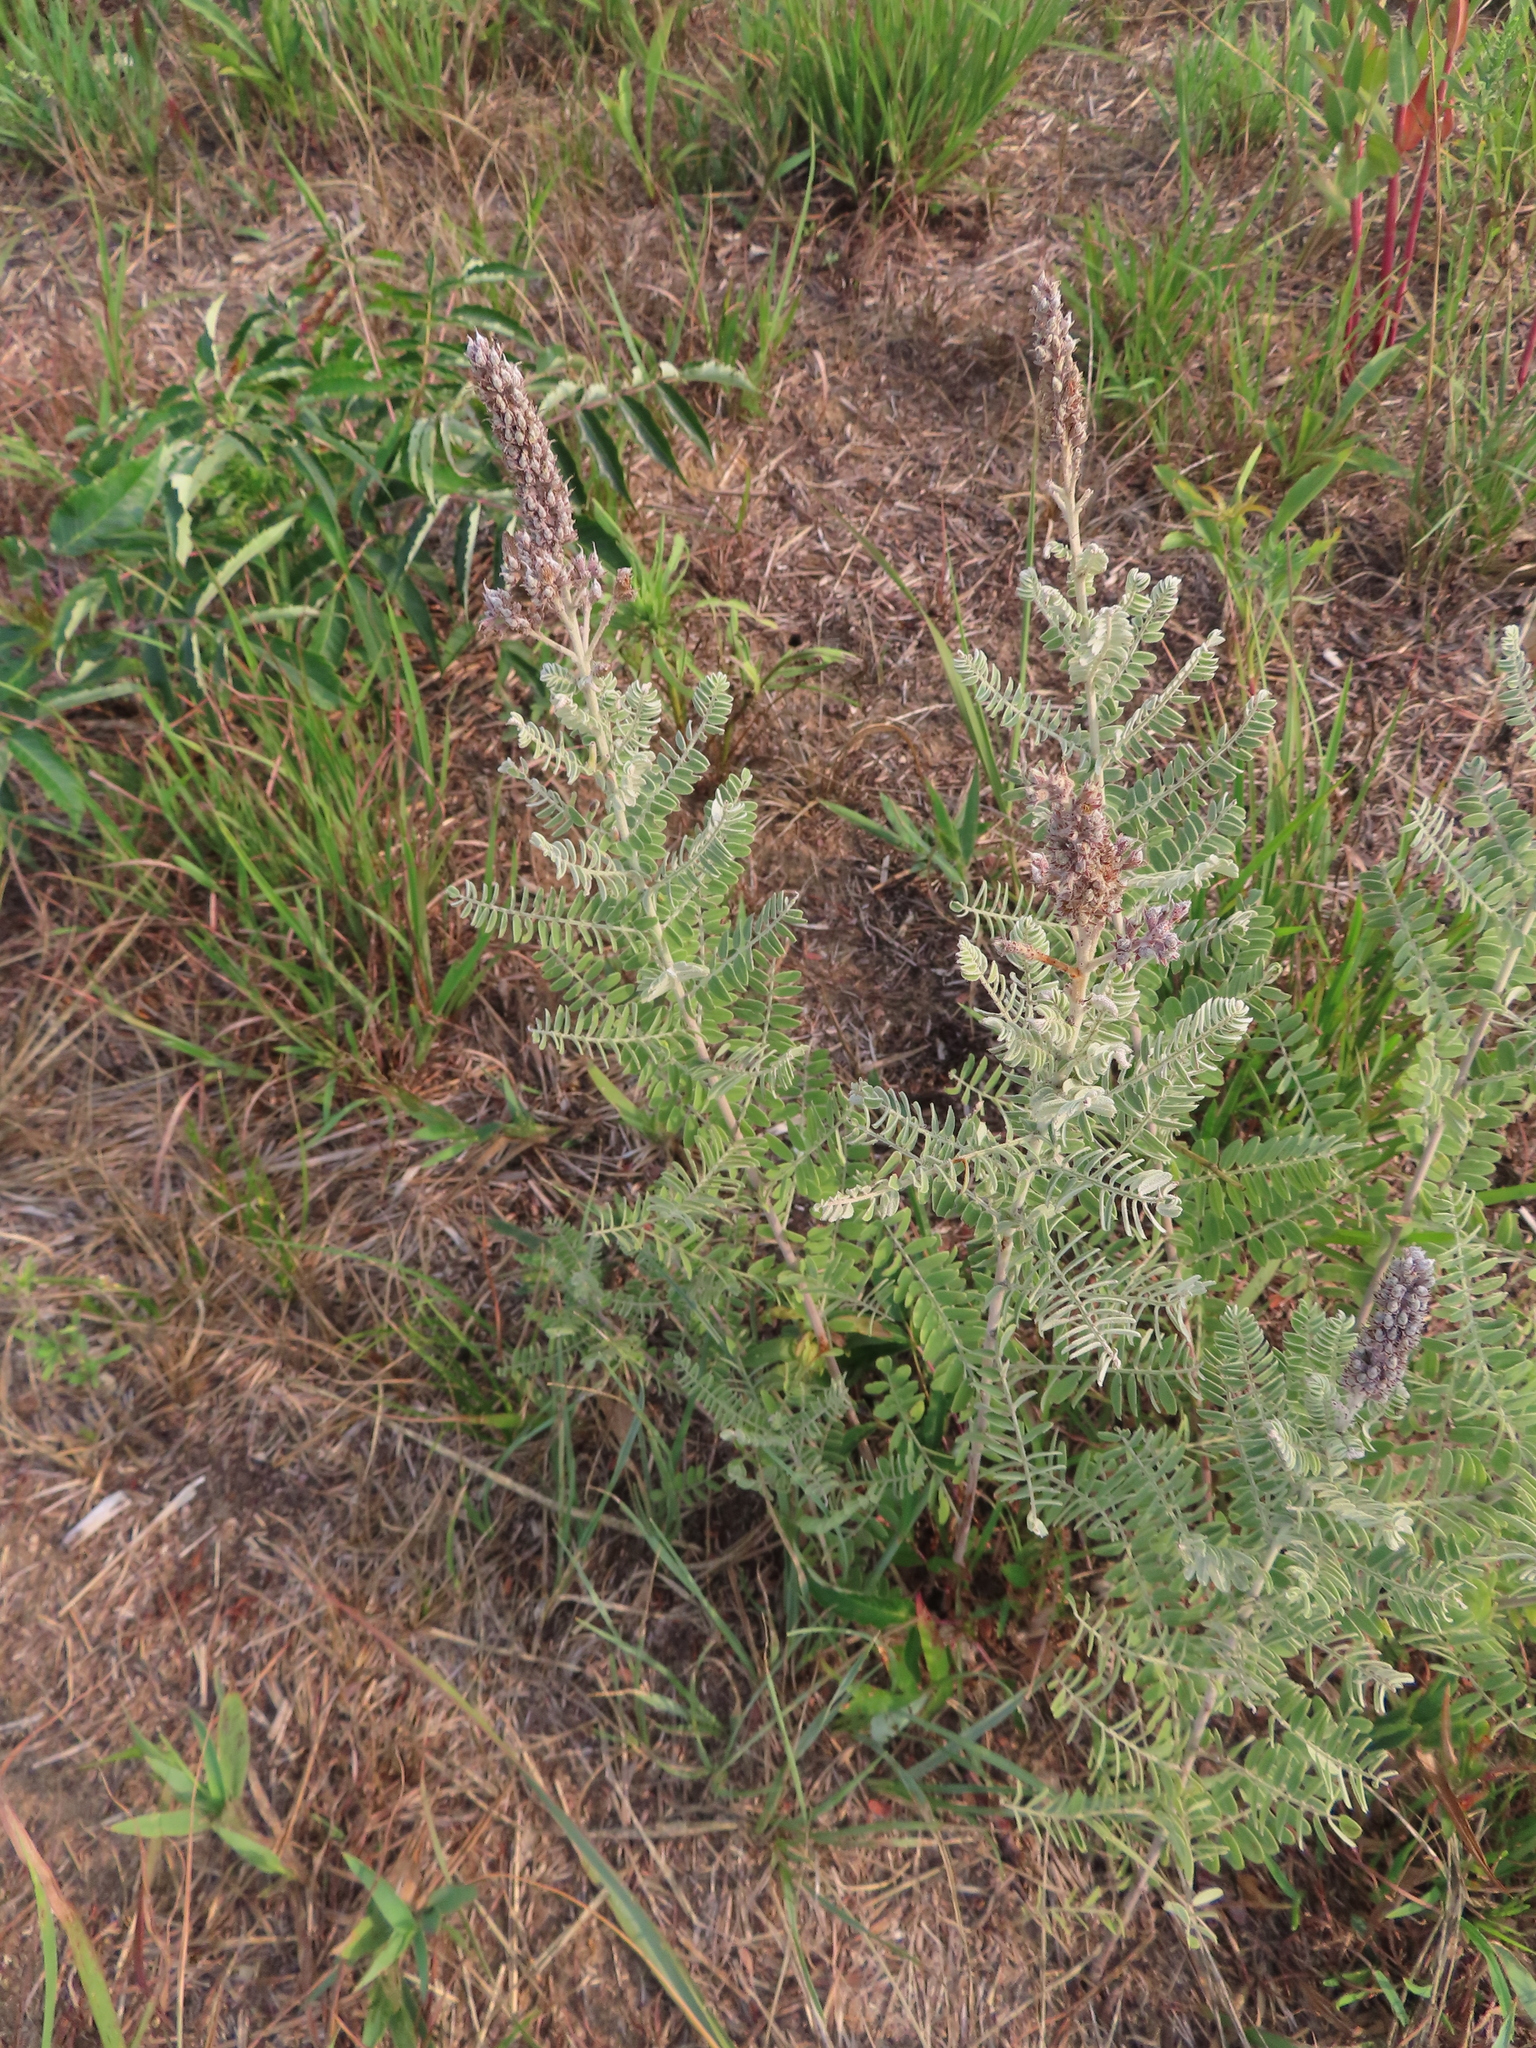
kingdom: Plantae
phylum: Tracheophyta
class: Magnoliopsida
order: Fabales
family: Fabaceae
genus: Amorpha
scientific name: Amorpha canescens
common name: Leadplant
